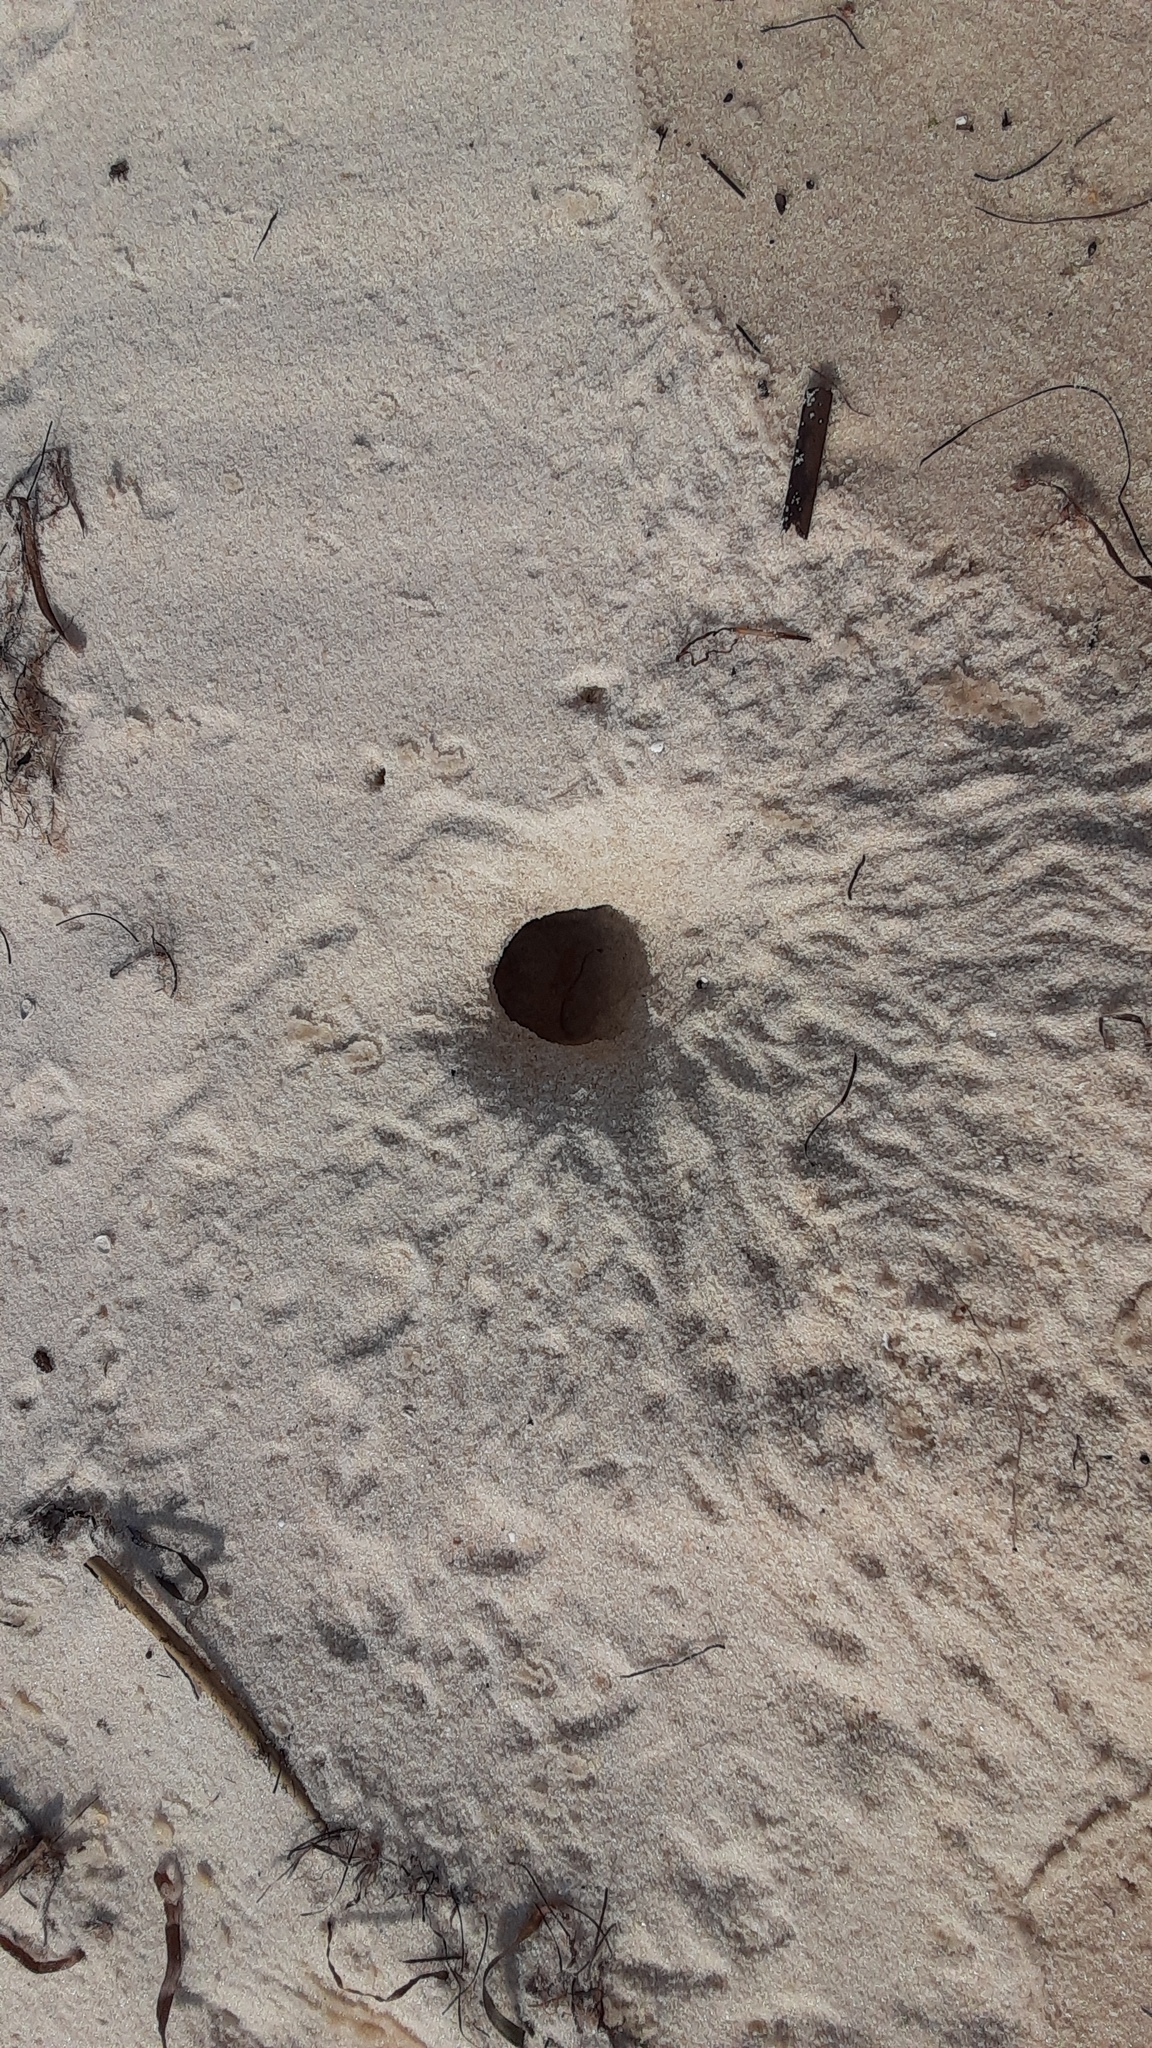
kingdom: Animalia
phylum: Arthropoda
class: Malacostraca
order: Decapoda
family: Ocypodidae
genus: Ocypode
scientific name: Ocypode quadrata
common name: Ghost crab
